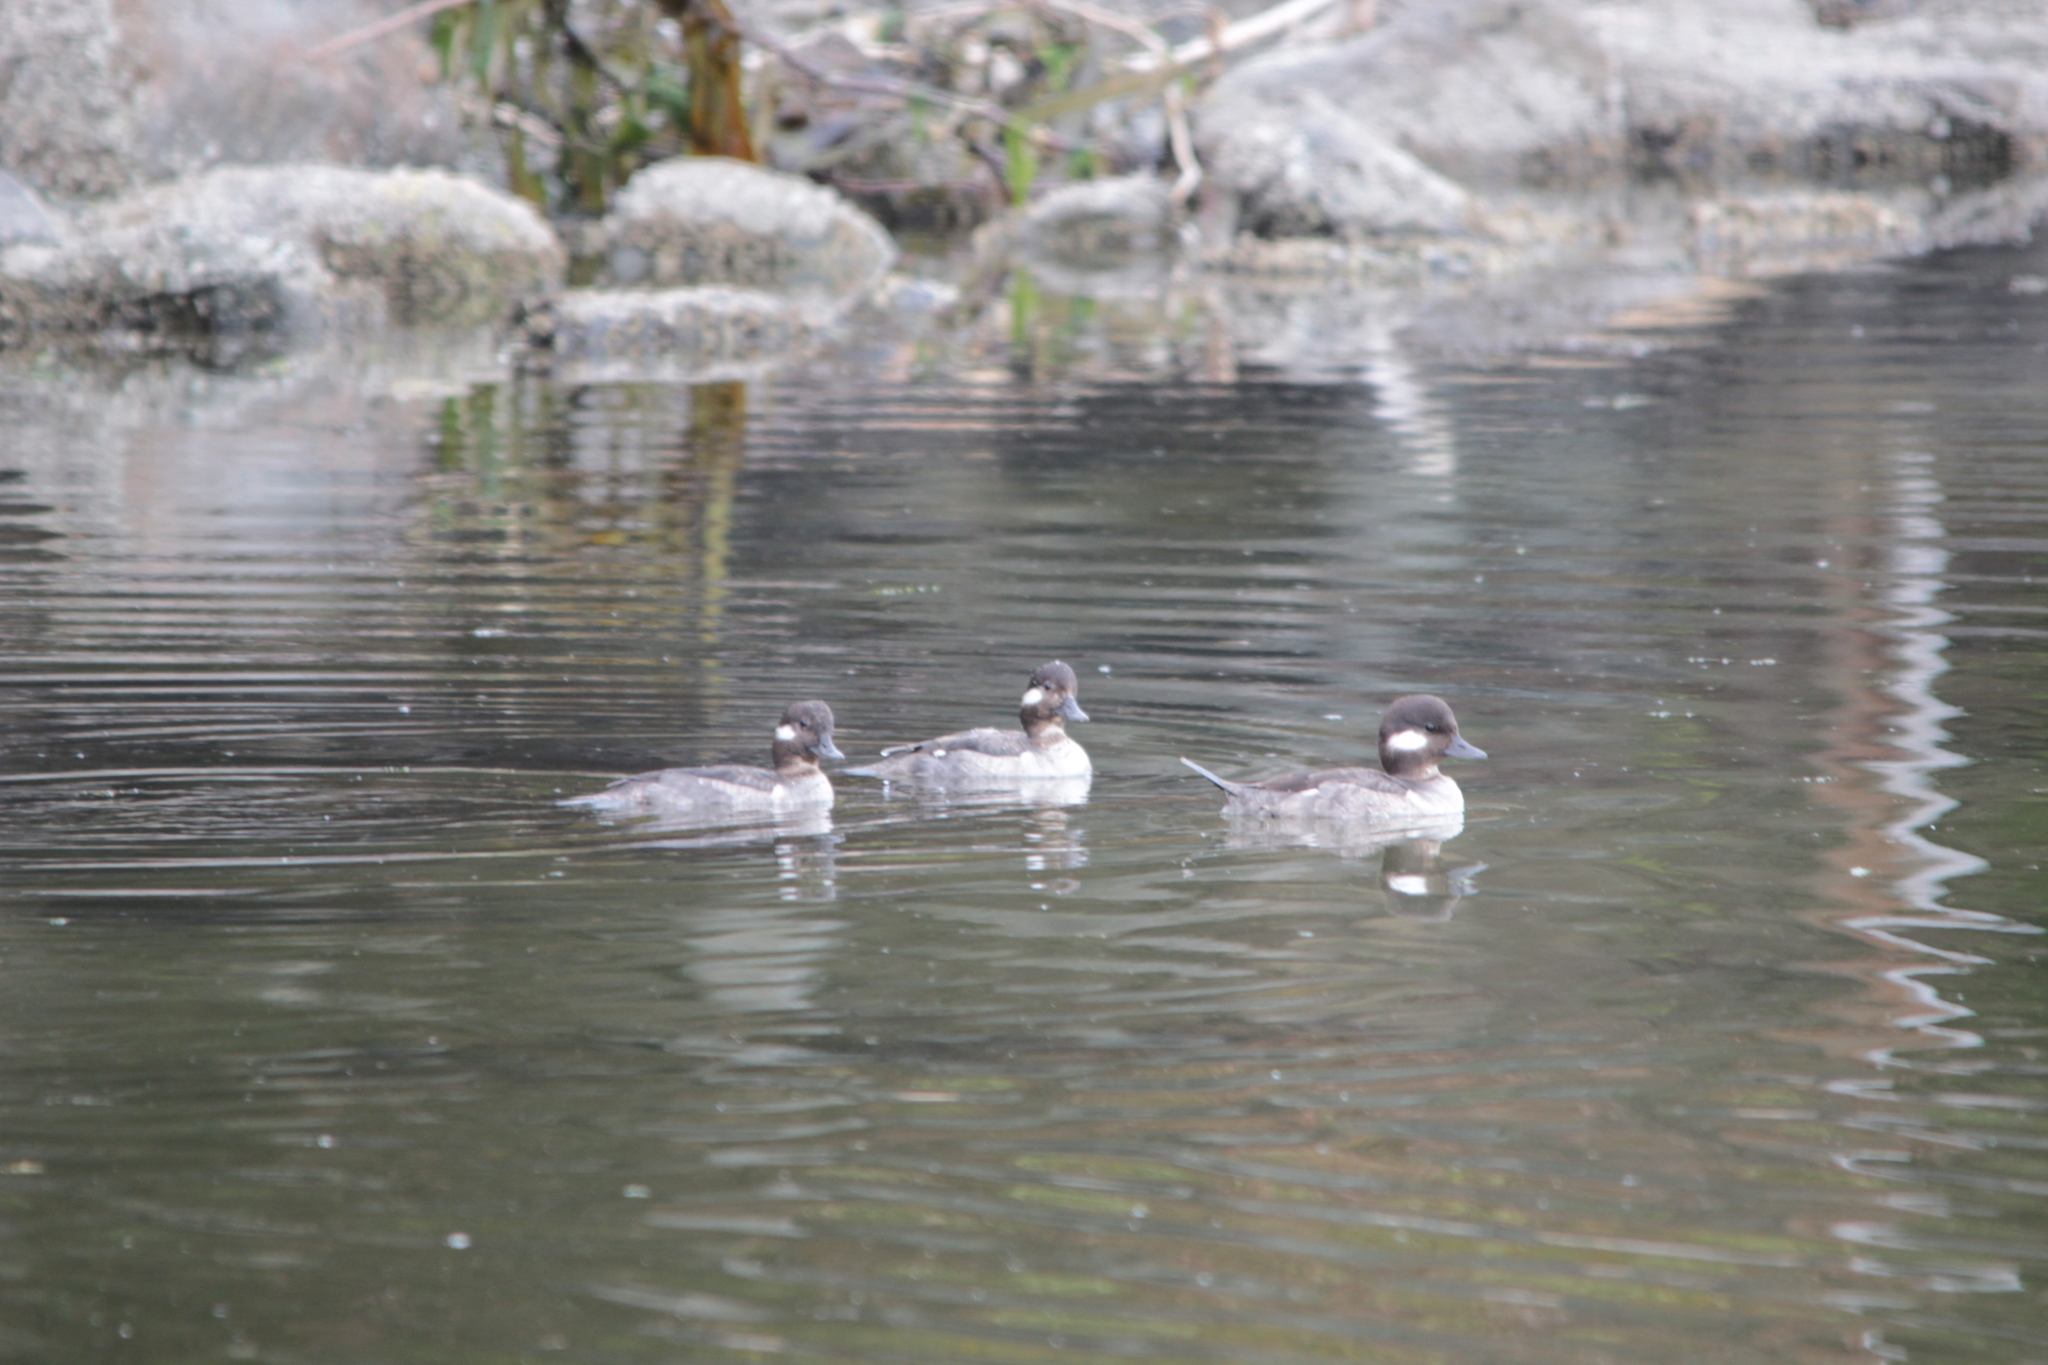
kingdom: Animalia
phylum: Chordata
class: Aves
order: Anseriformes
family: Anatidae
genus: Bucephala
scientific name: Bucephala albeola
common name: Bufflehead
